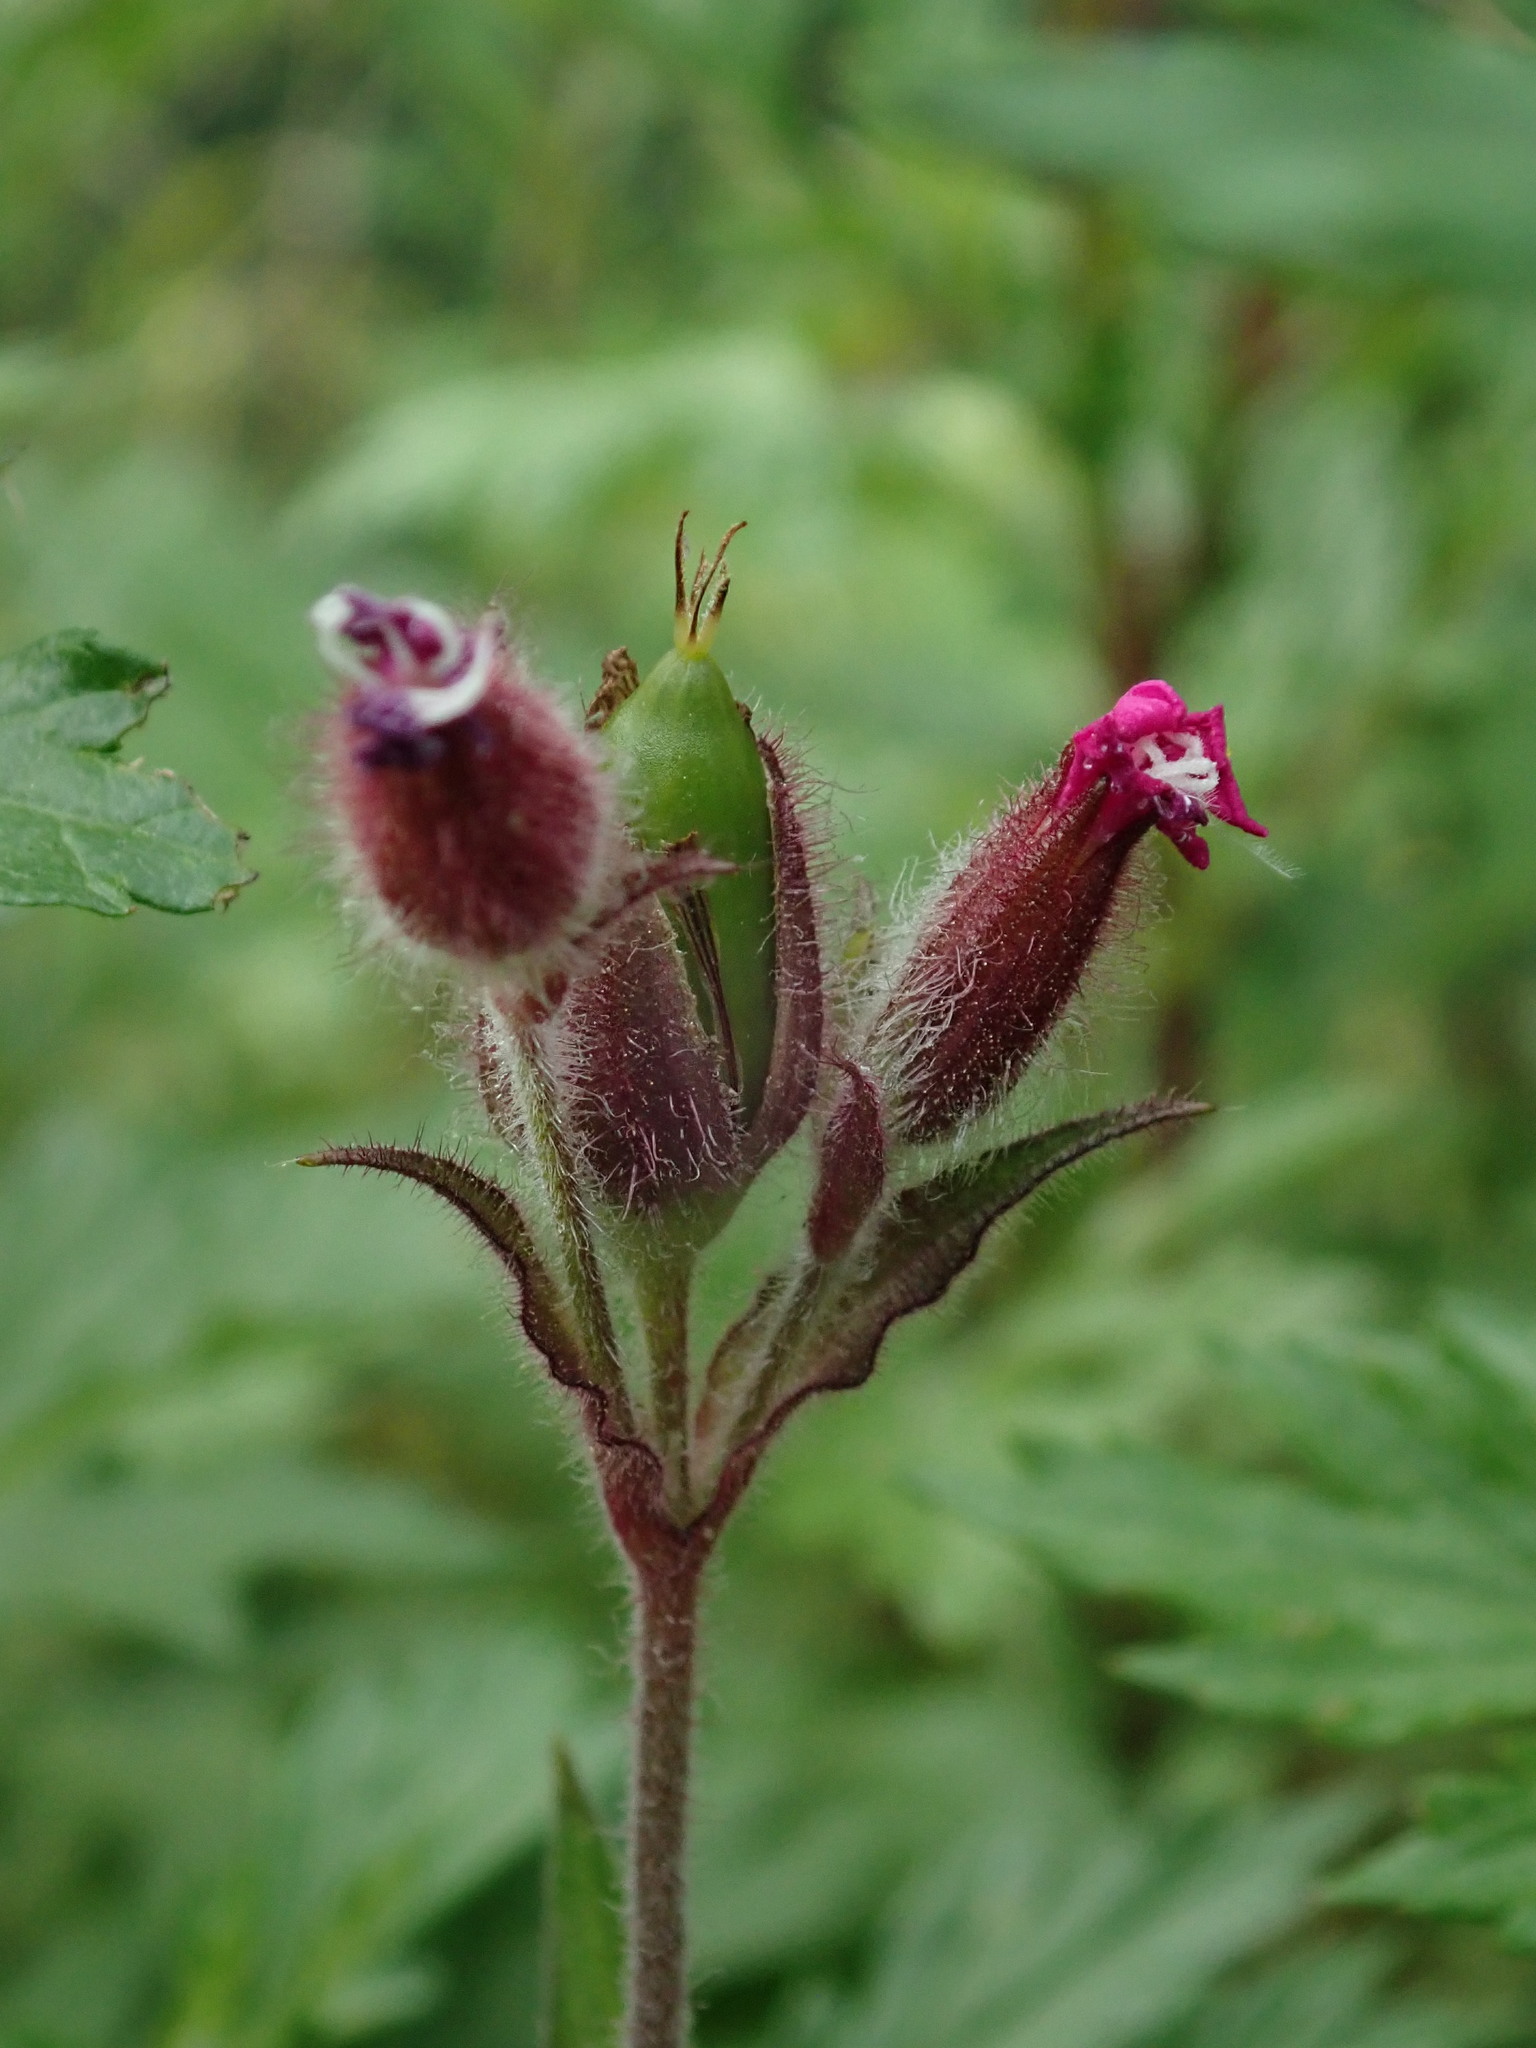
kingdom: Plantae
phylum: Tracheophyta
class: Magnoliopsida
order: Caryophyllales
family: Caryophyllaceae
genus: Silene
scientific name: Silene dioica
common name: Red campion
